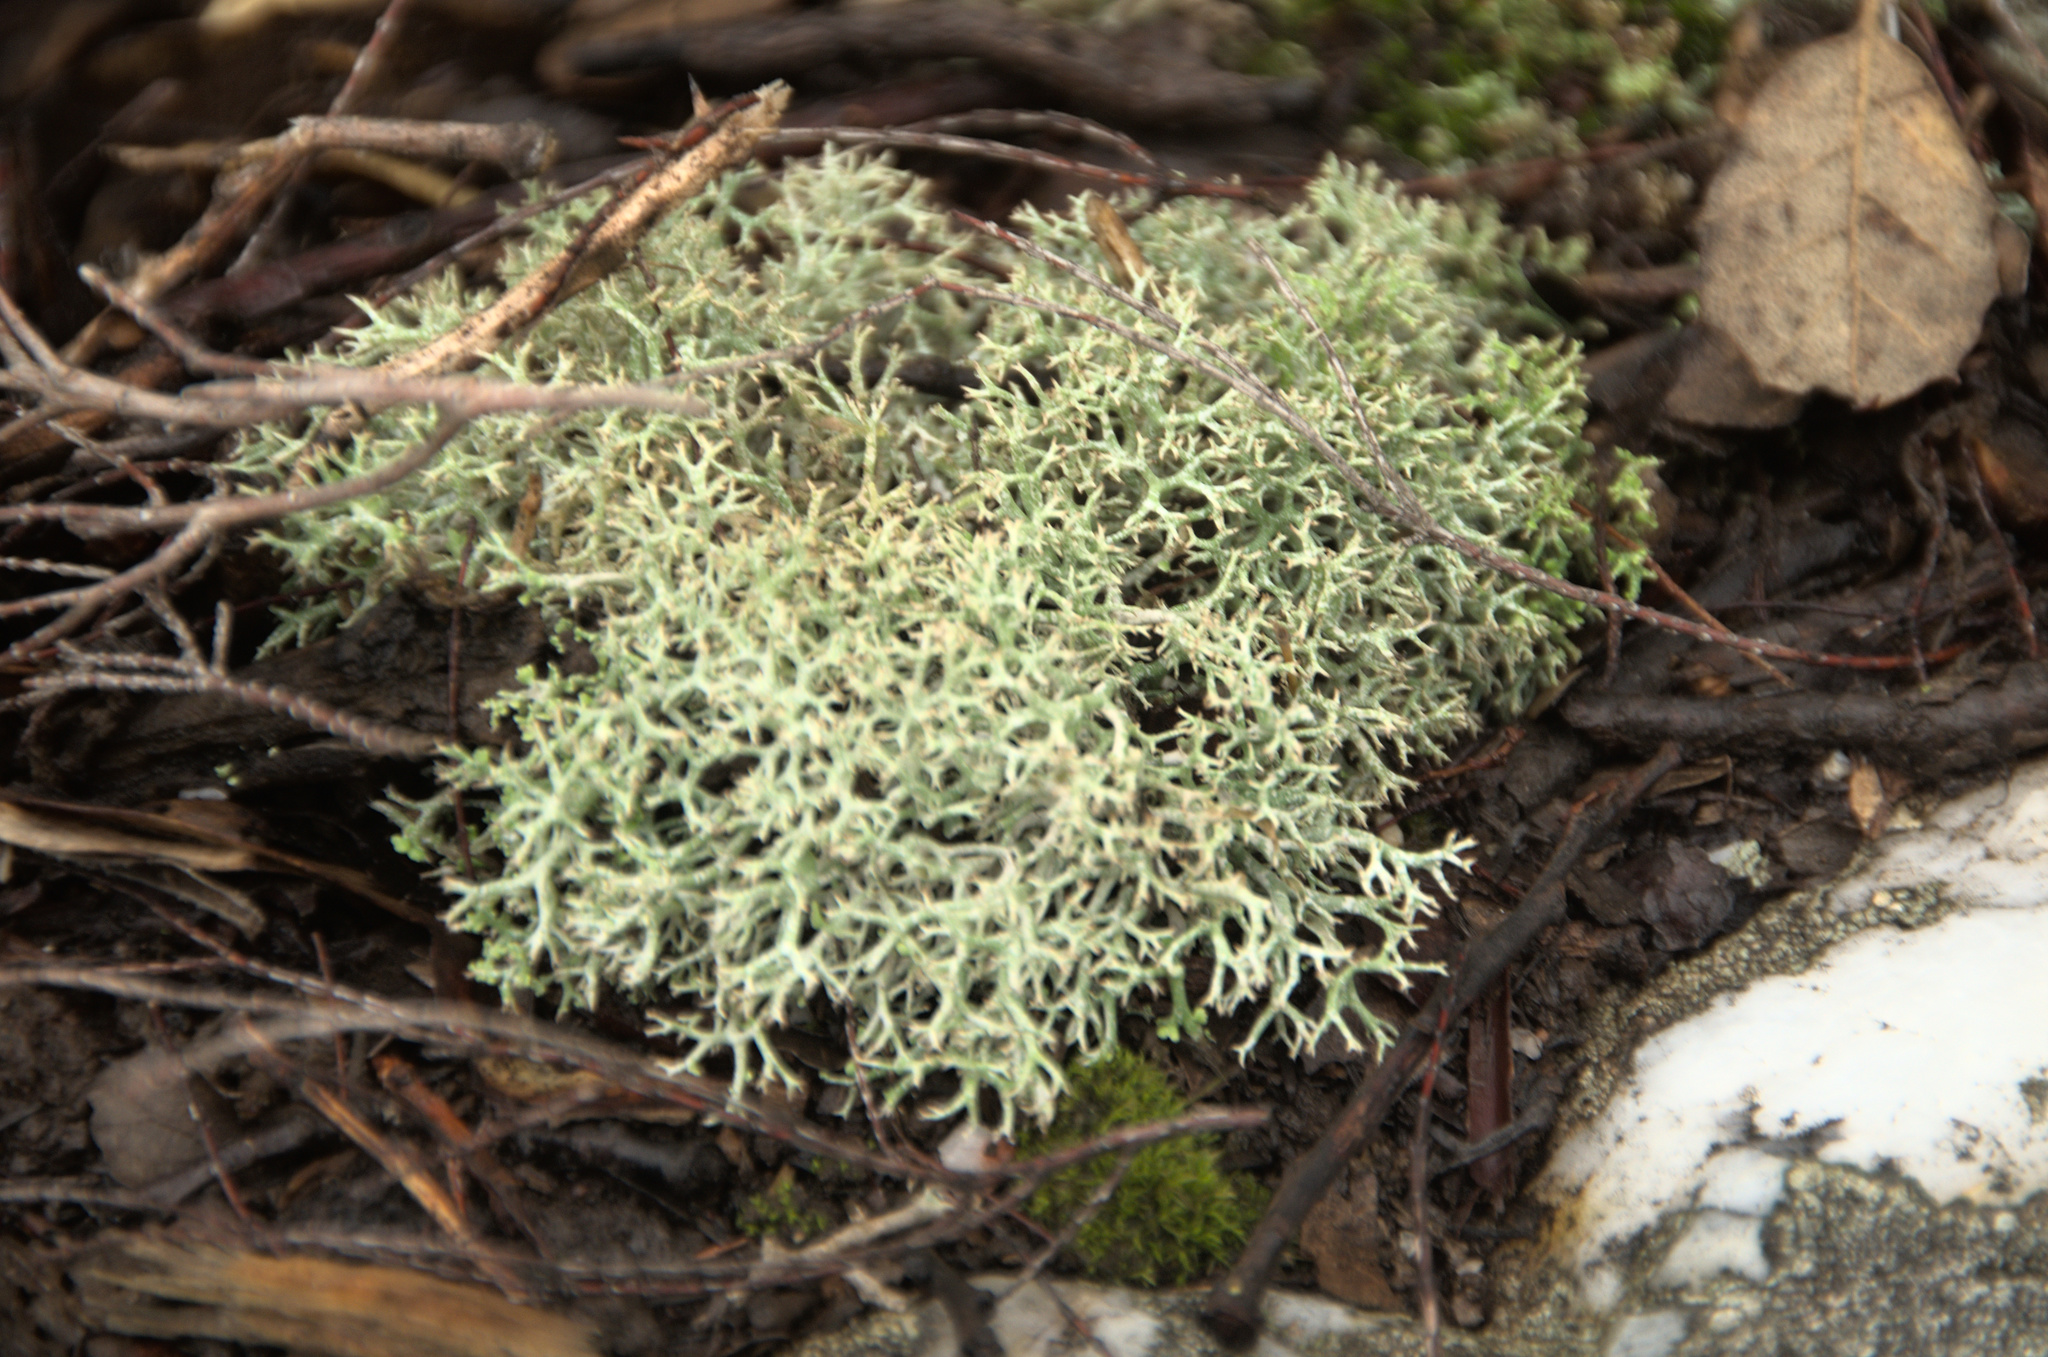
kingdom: Fungi
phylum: Ascomycota
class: Lecanoromycetes
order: Lecanorales
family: Cladoniaceae
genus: Cladonia
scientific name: Cladonia rangiformis
